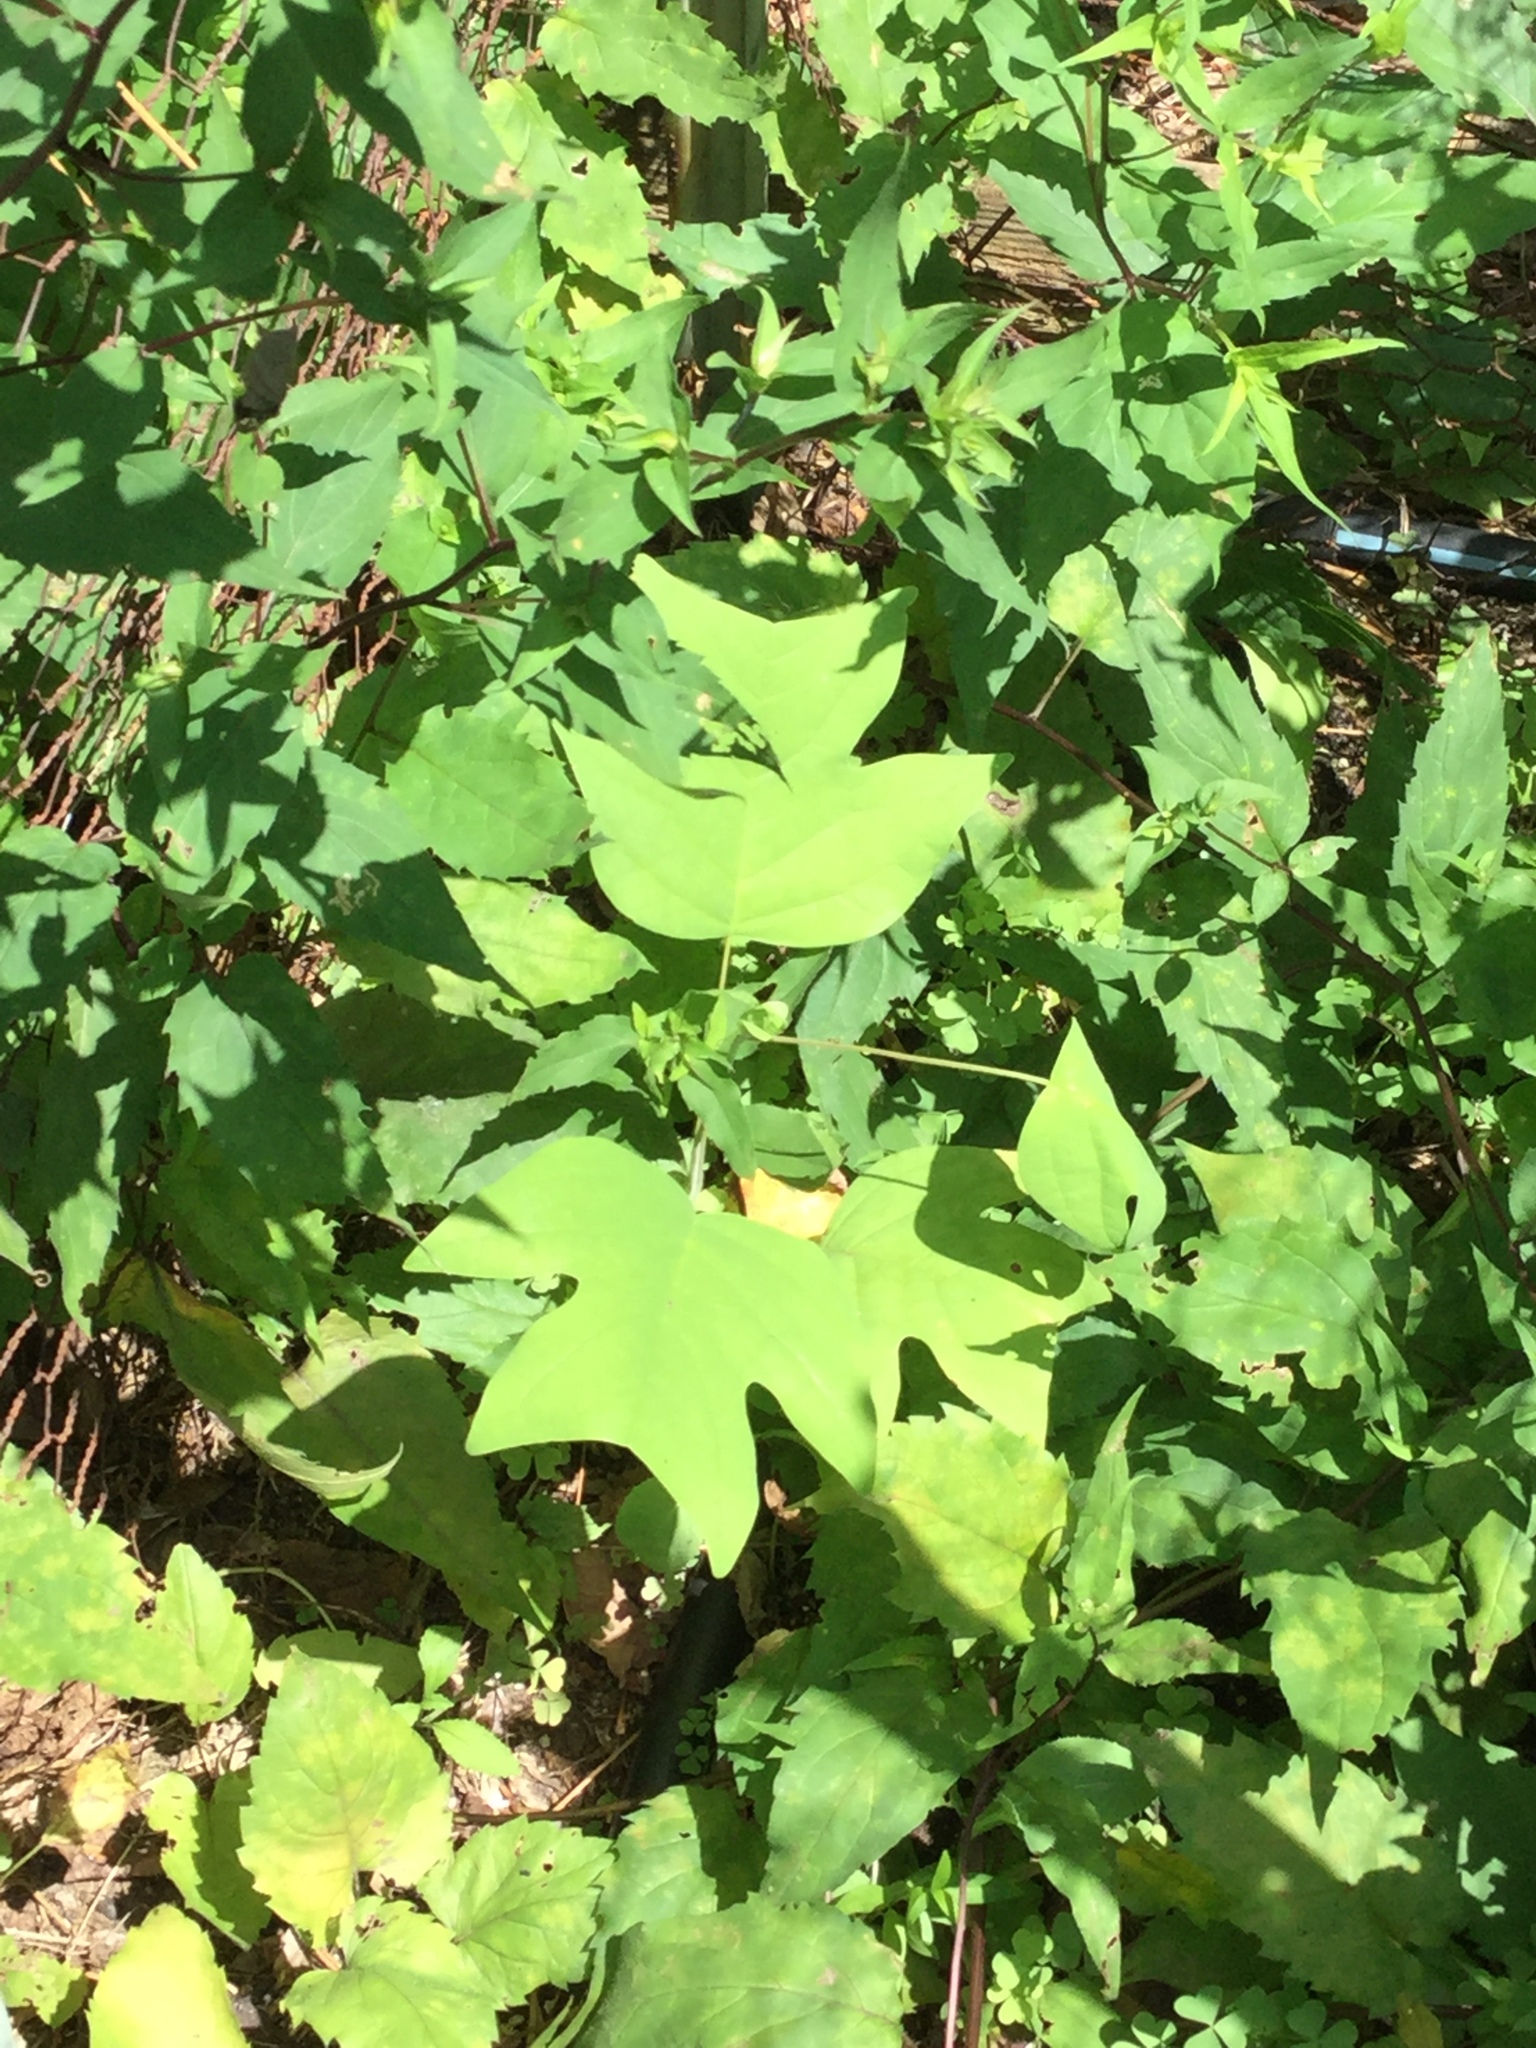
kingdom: Plantae
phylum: Tracheophyta
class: Magnoliopsida
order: Magnoliales
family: Magnoliaceae
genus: Liriodendron
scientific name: Liriodendron tulipifera
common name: Tulip tree
